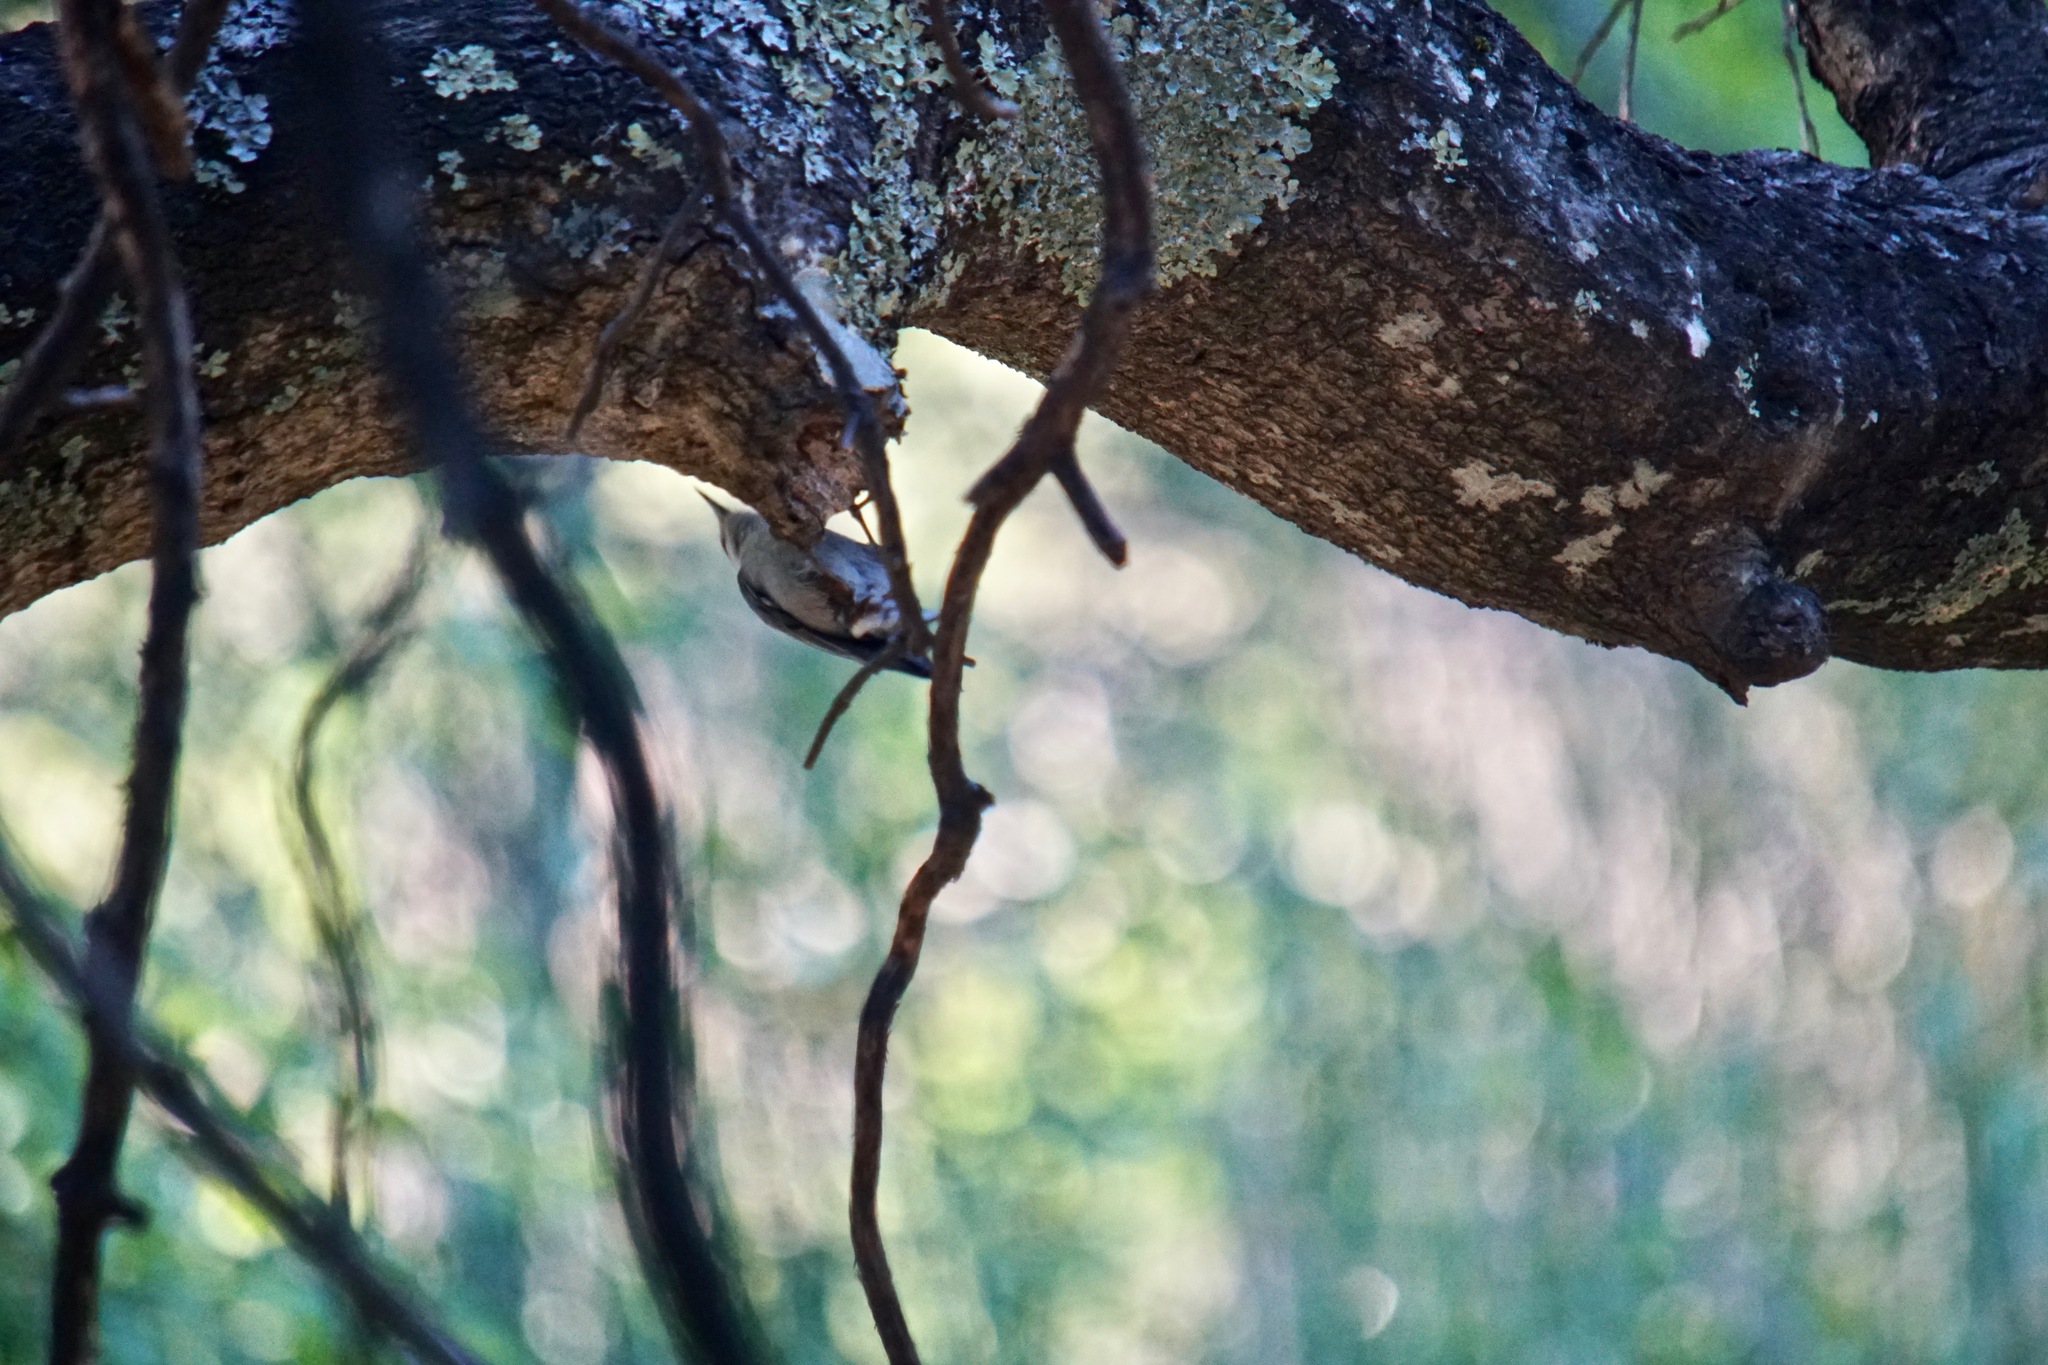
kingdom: Animalia
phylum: Chordata
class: Aves
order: Passeriformes
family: Sittidae
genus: Sitta
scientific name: Sitta carolinensis
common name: White-breasted nuthatch
